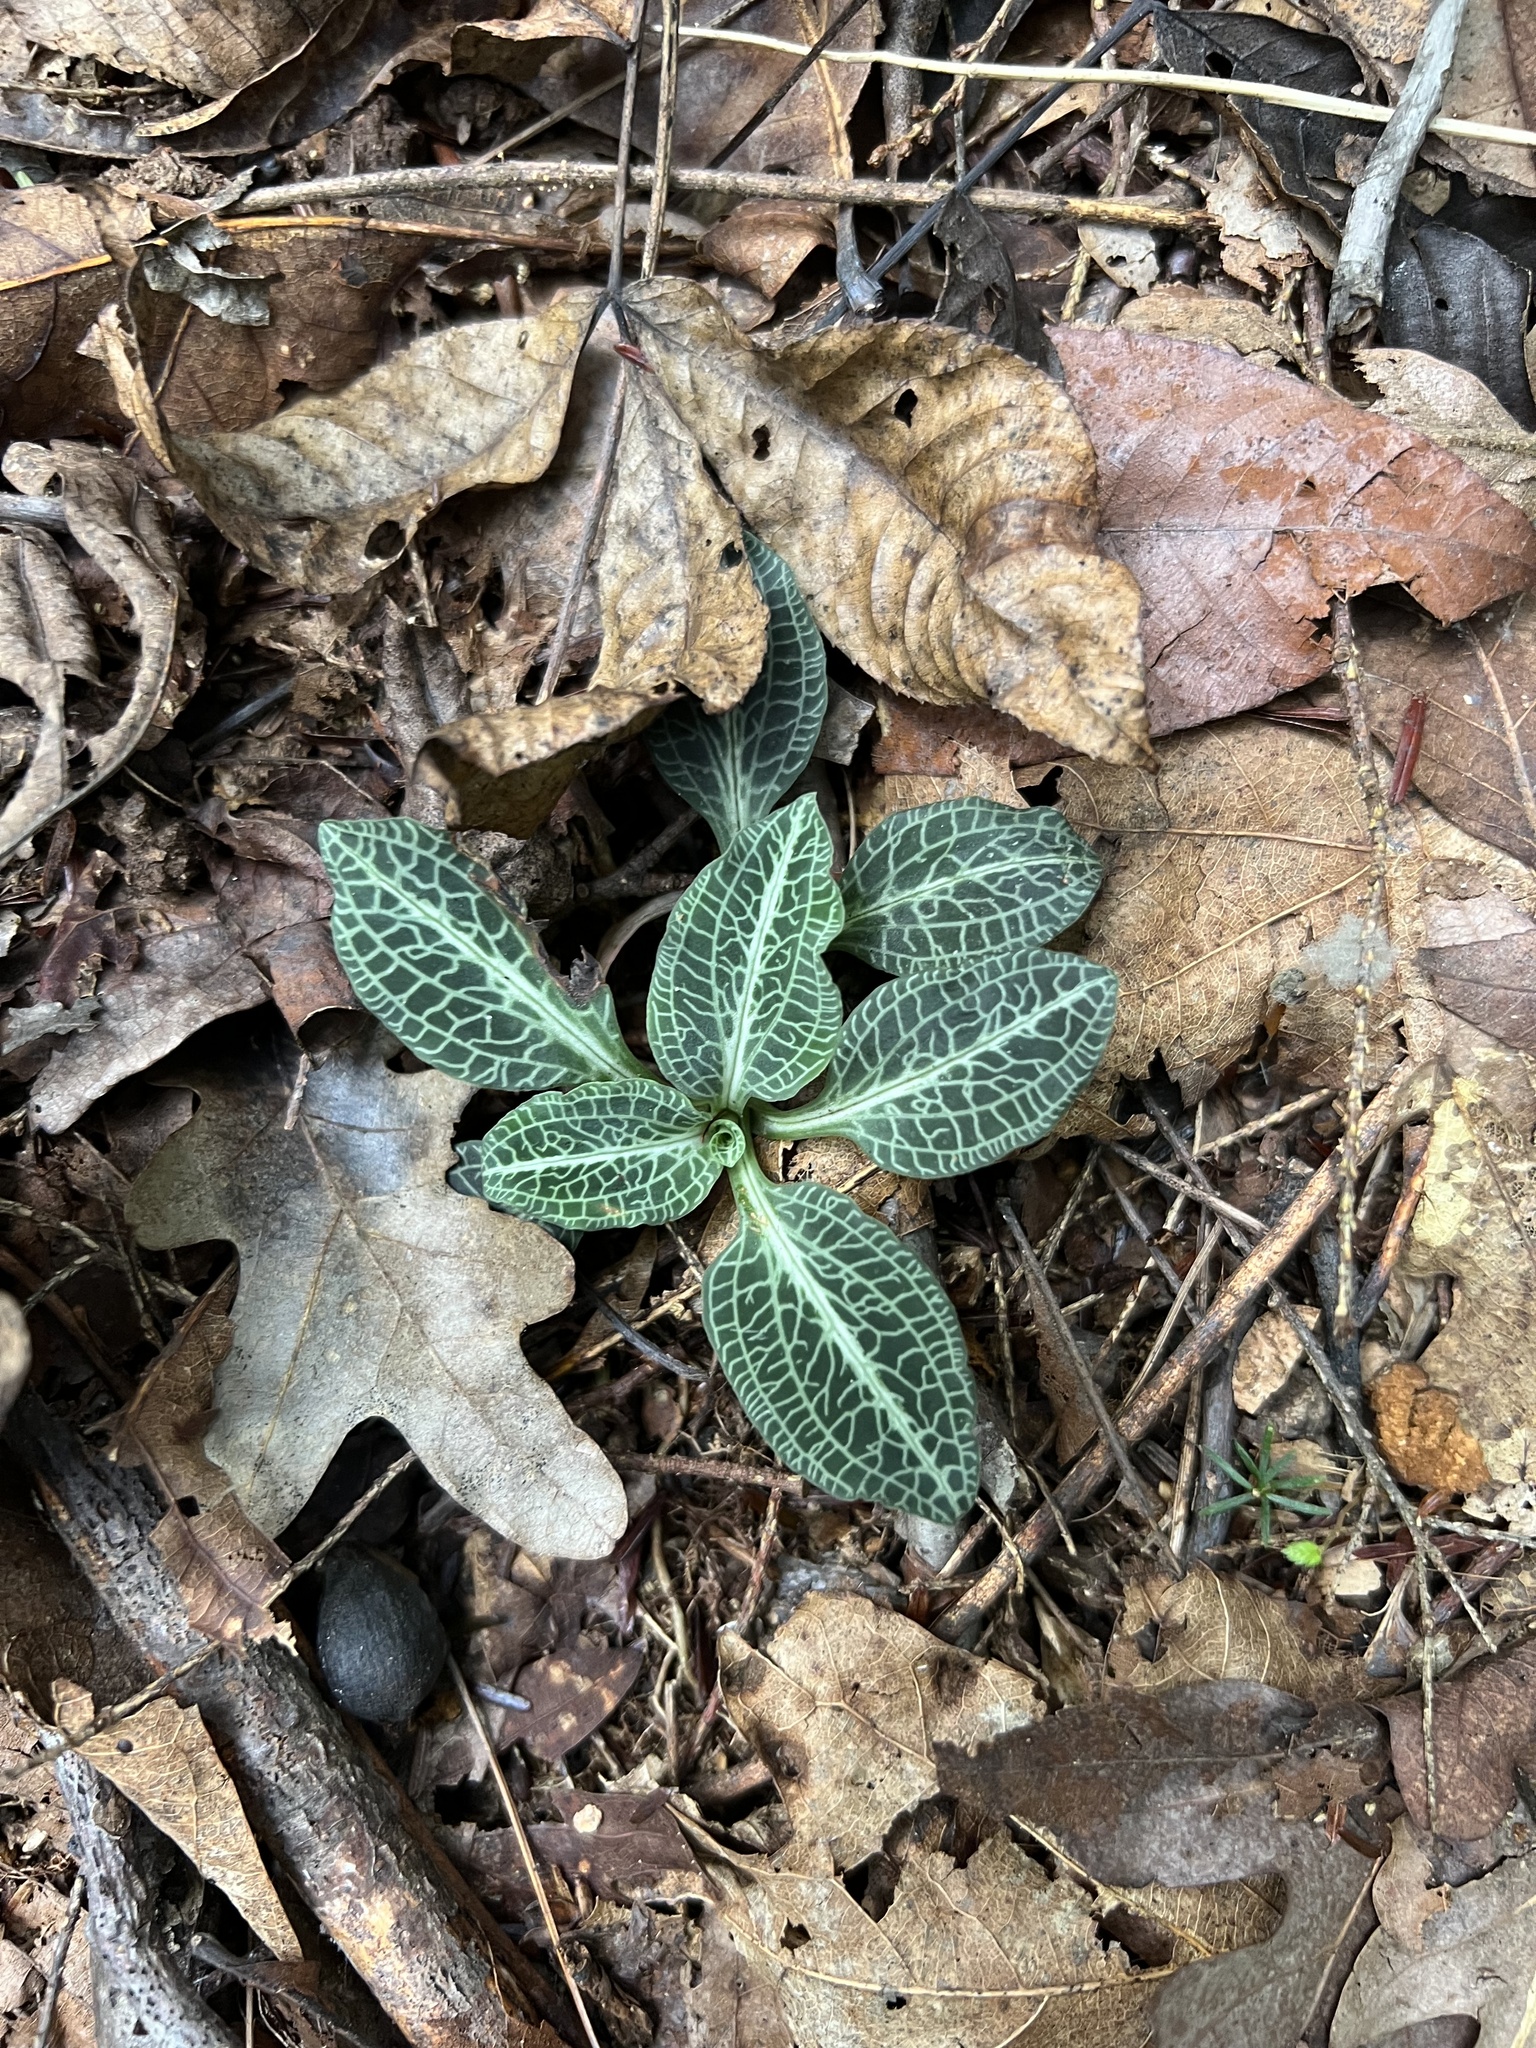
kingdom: Plantae
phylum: Tracheophyta
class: Liliopsida
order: Asparagales
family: Orchidaceae
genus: Goodyera
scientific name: Goodyera pubescens
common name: Downy rattlesnake-plantain
